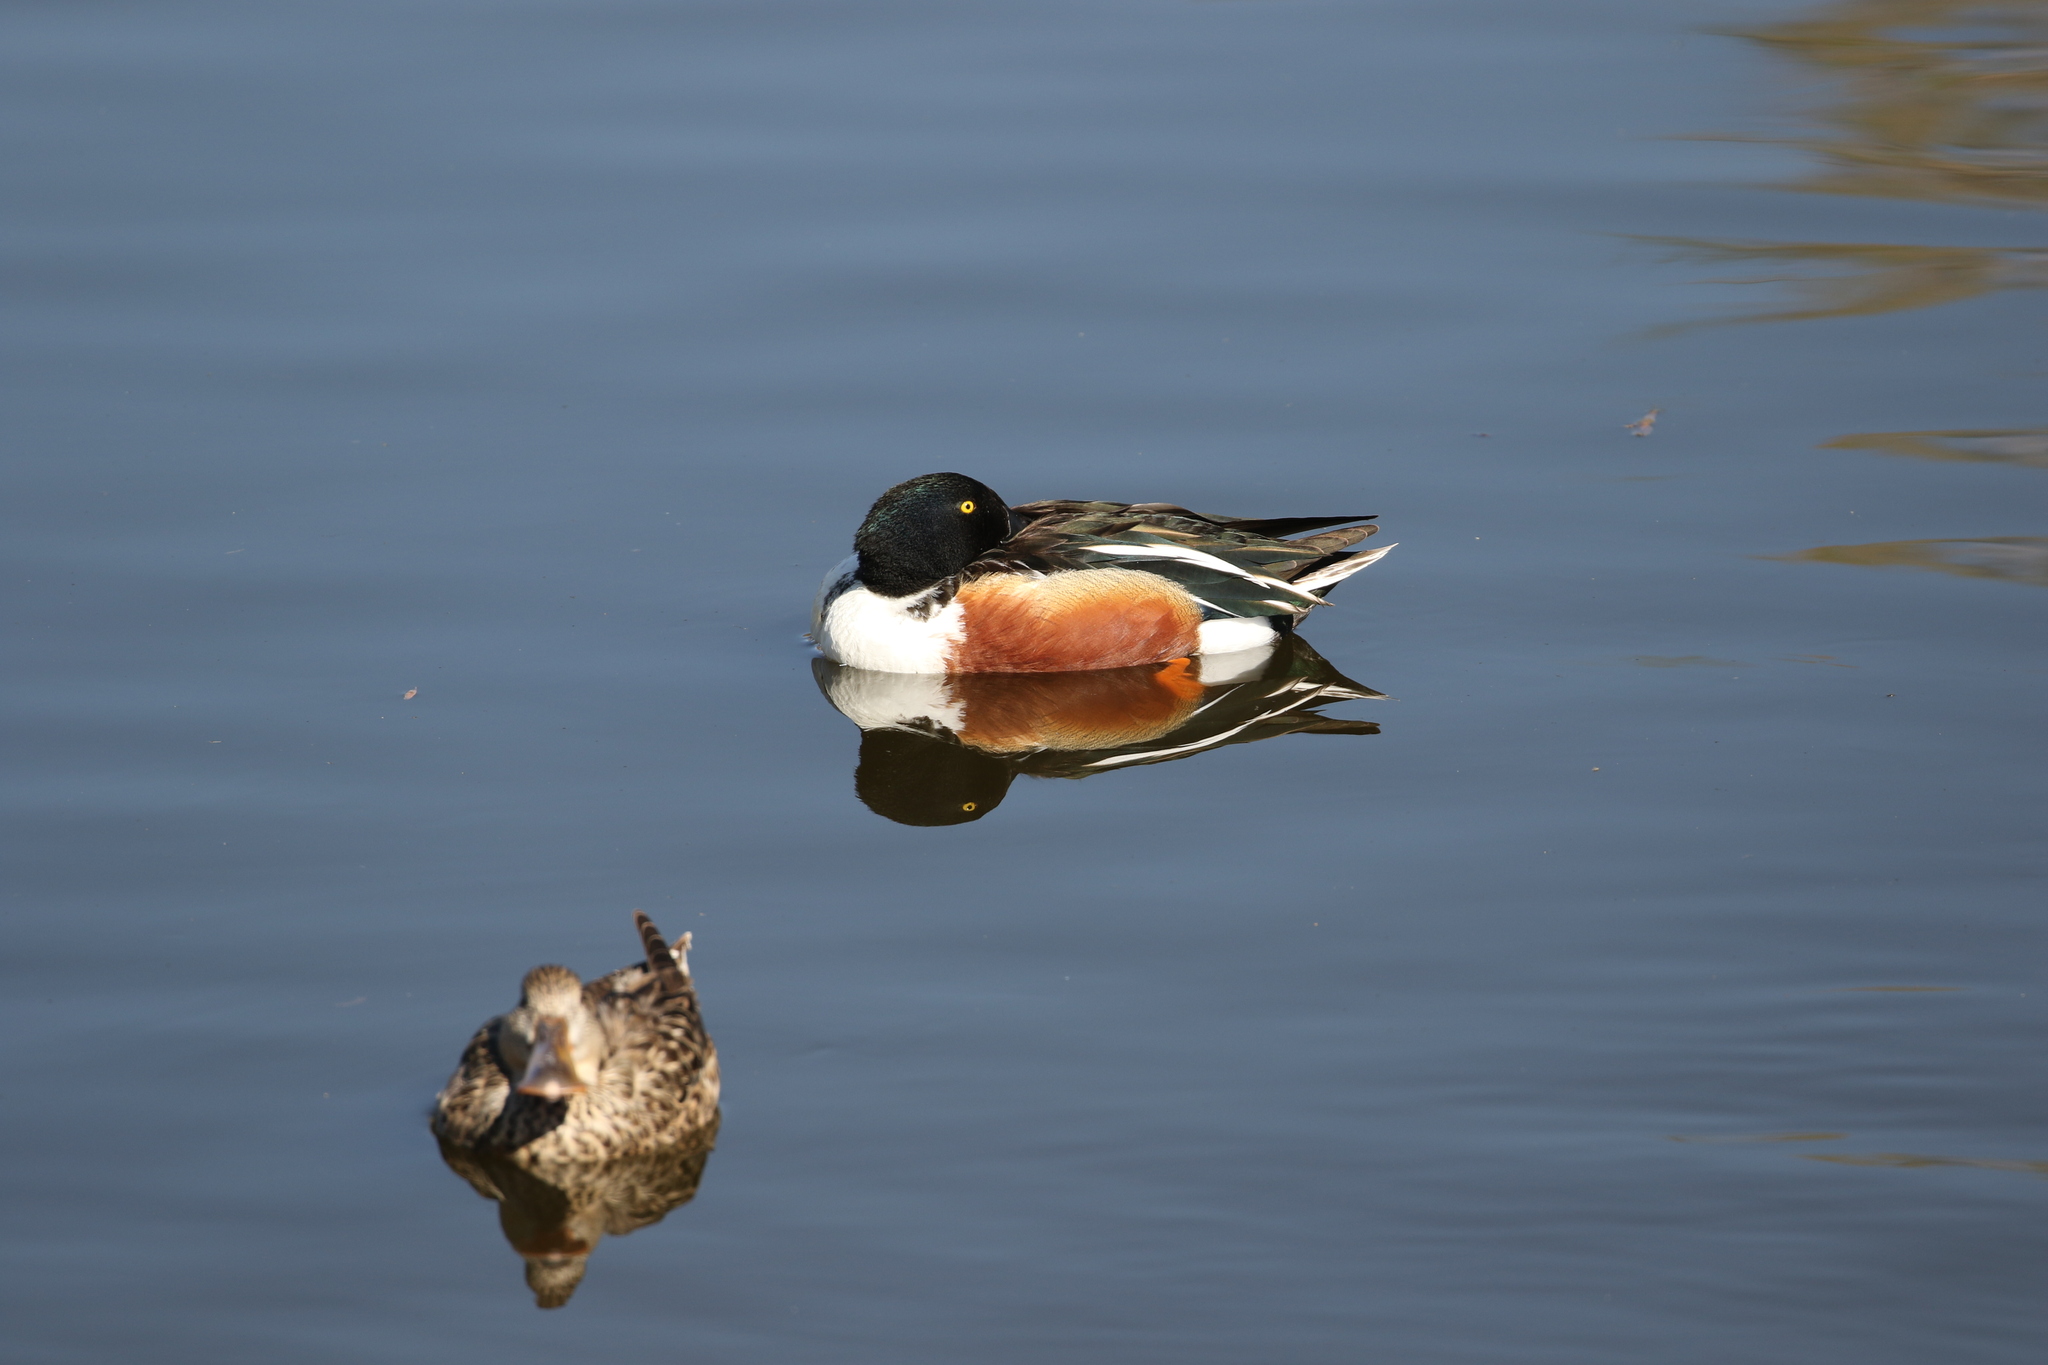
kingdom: Animalia
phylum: Chordata
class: Aves
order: Anseriformes
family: Anatidae
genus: Spatula
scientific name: Spatula clypeata
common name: Northern shoveler
